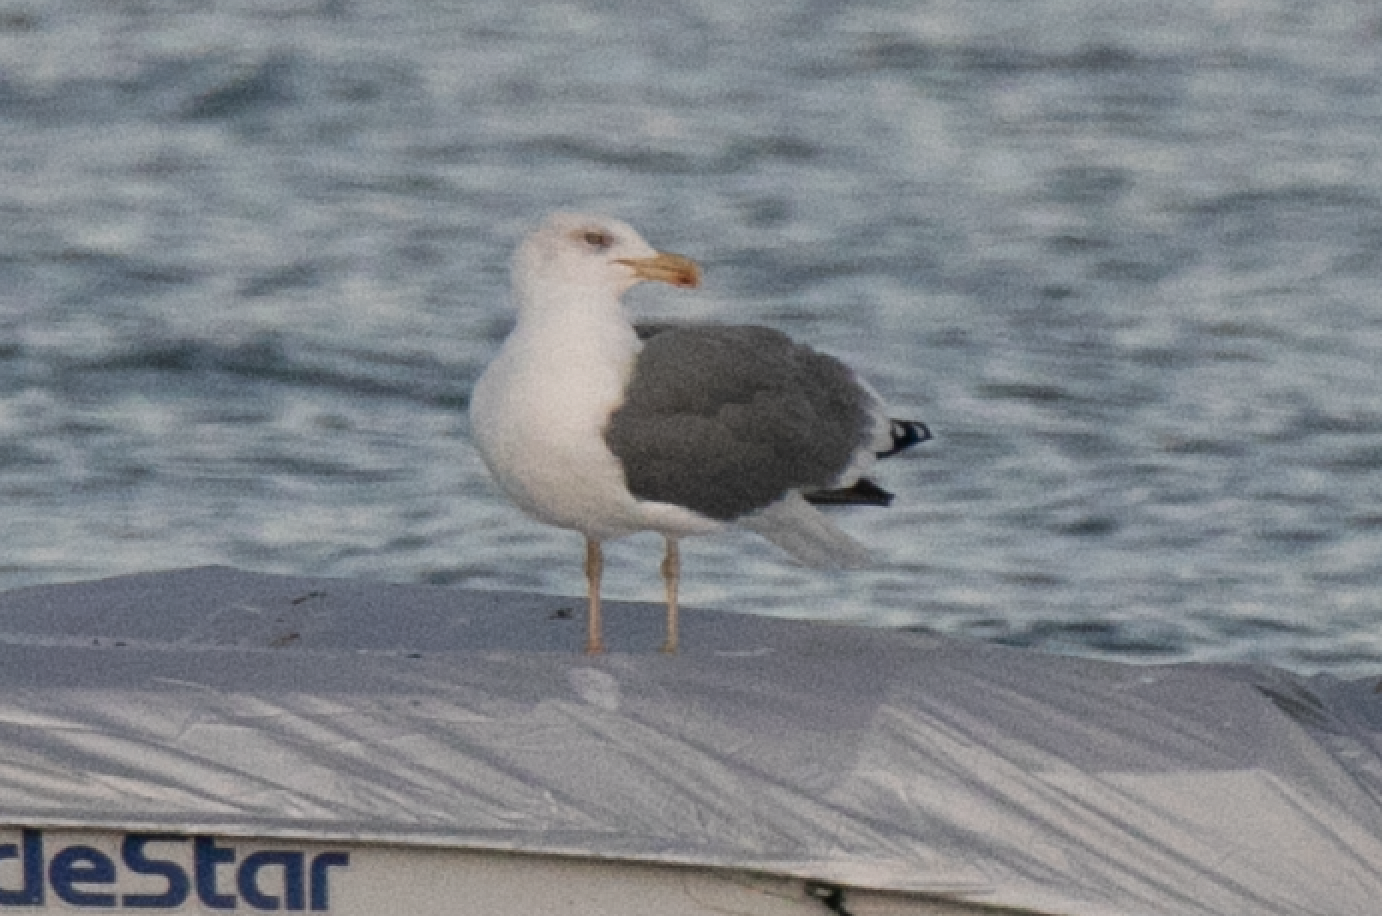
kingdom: Animalia
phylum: Chordata
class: Aves
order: Charadriiformes
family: Laridae
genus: Larus
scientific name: Larus fuscus
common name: Lesser black-backed gull
